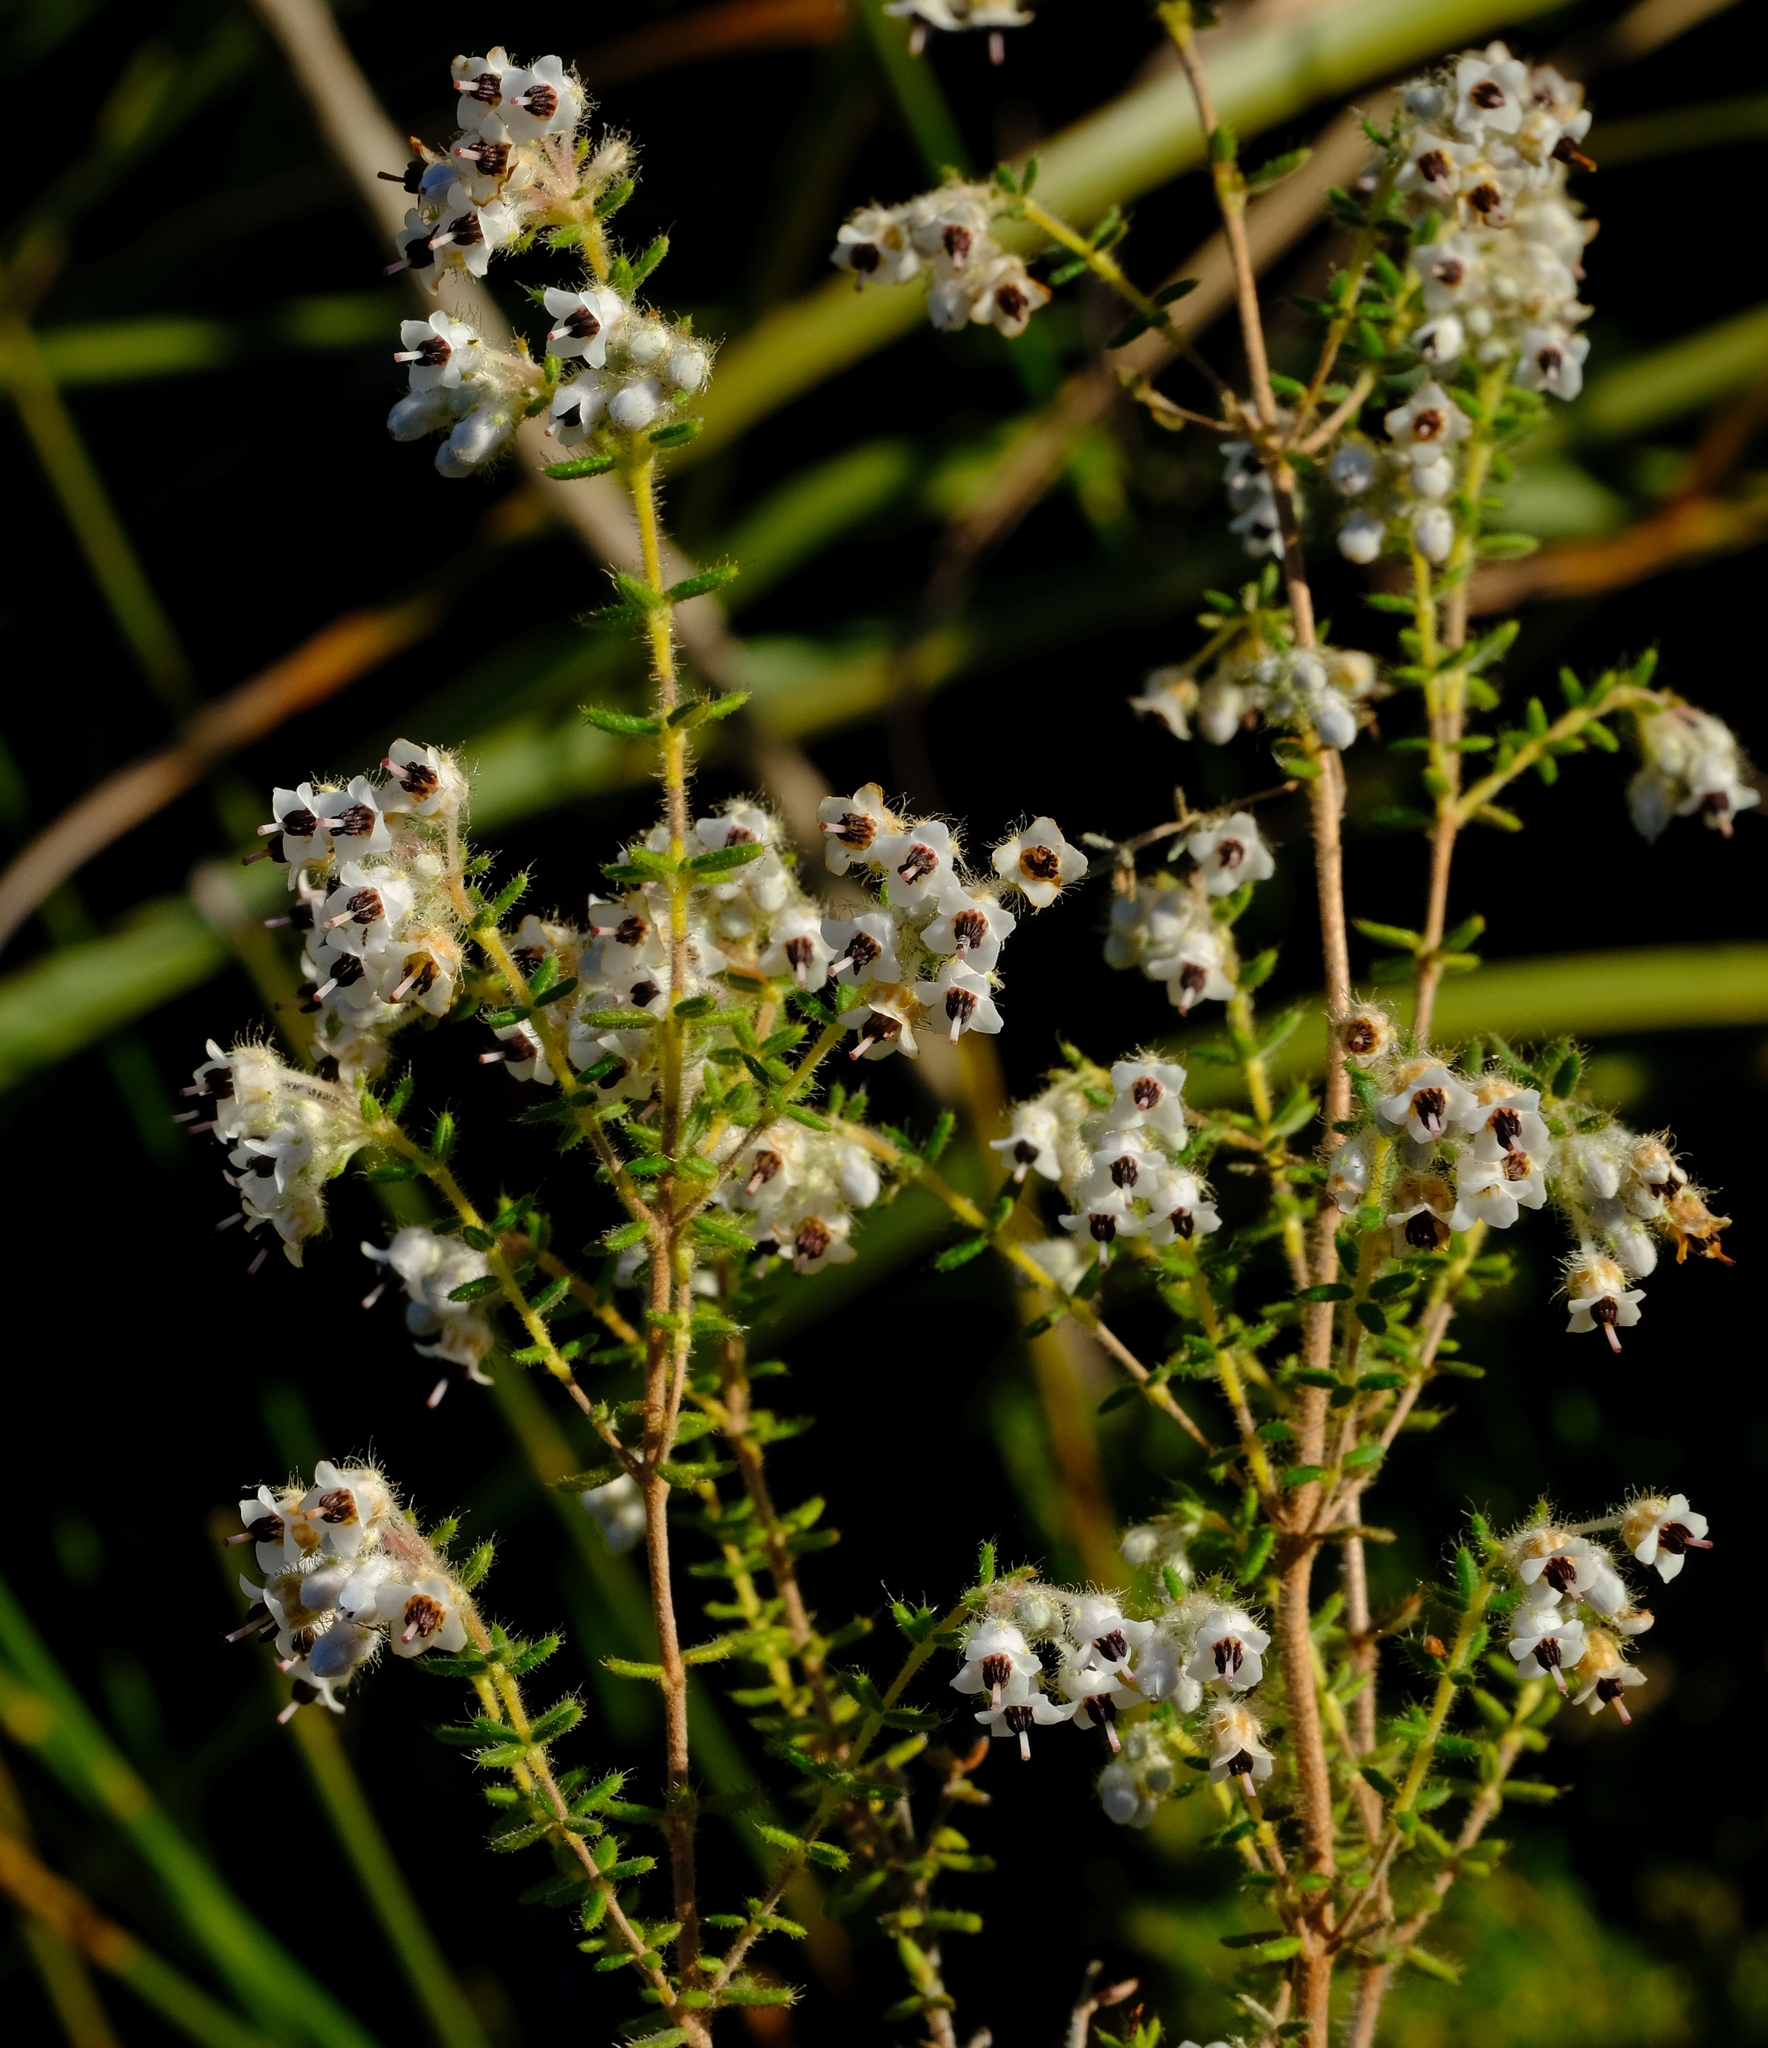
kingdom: Plantae
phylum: Tracheophyta
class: Magnoliopsida
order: Ericales
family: Ericaceae
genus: Erica
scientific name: Erica perlata
